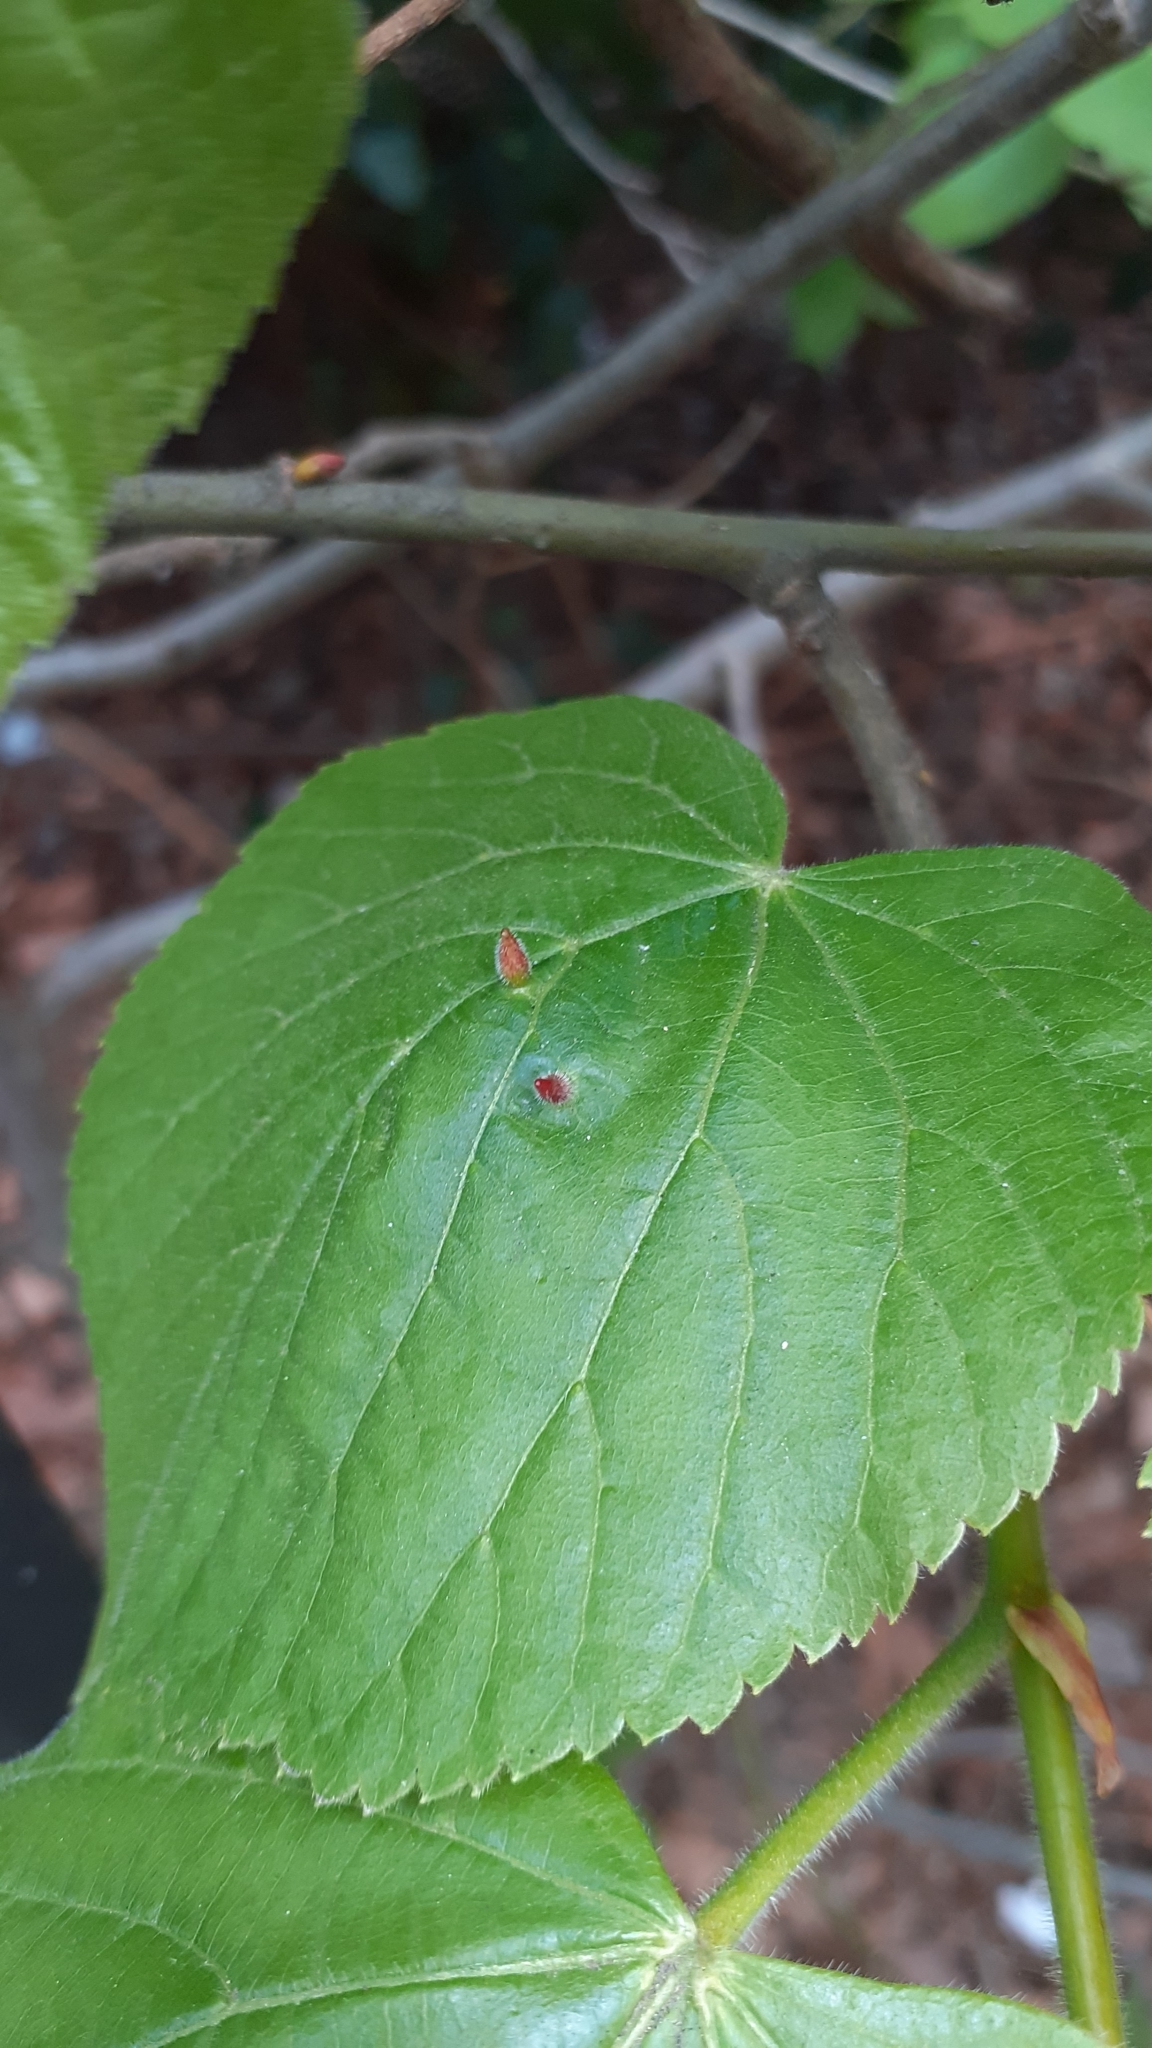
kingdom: Animalia
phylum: Arthropoda
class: Arachnida
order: Trombidiformes
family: Eriophyidae
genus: Eriophyes
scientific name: Eriophyes tiliae
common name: Red nail gall mite
